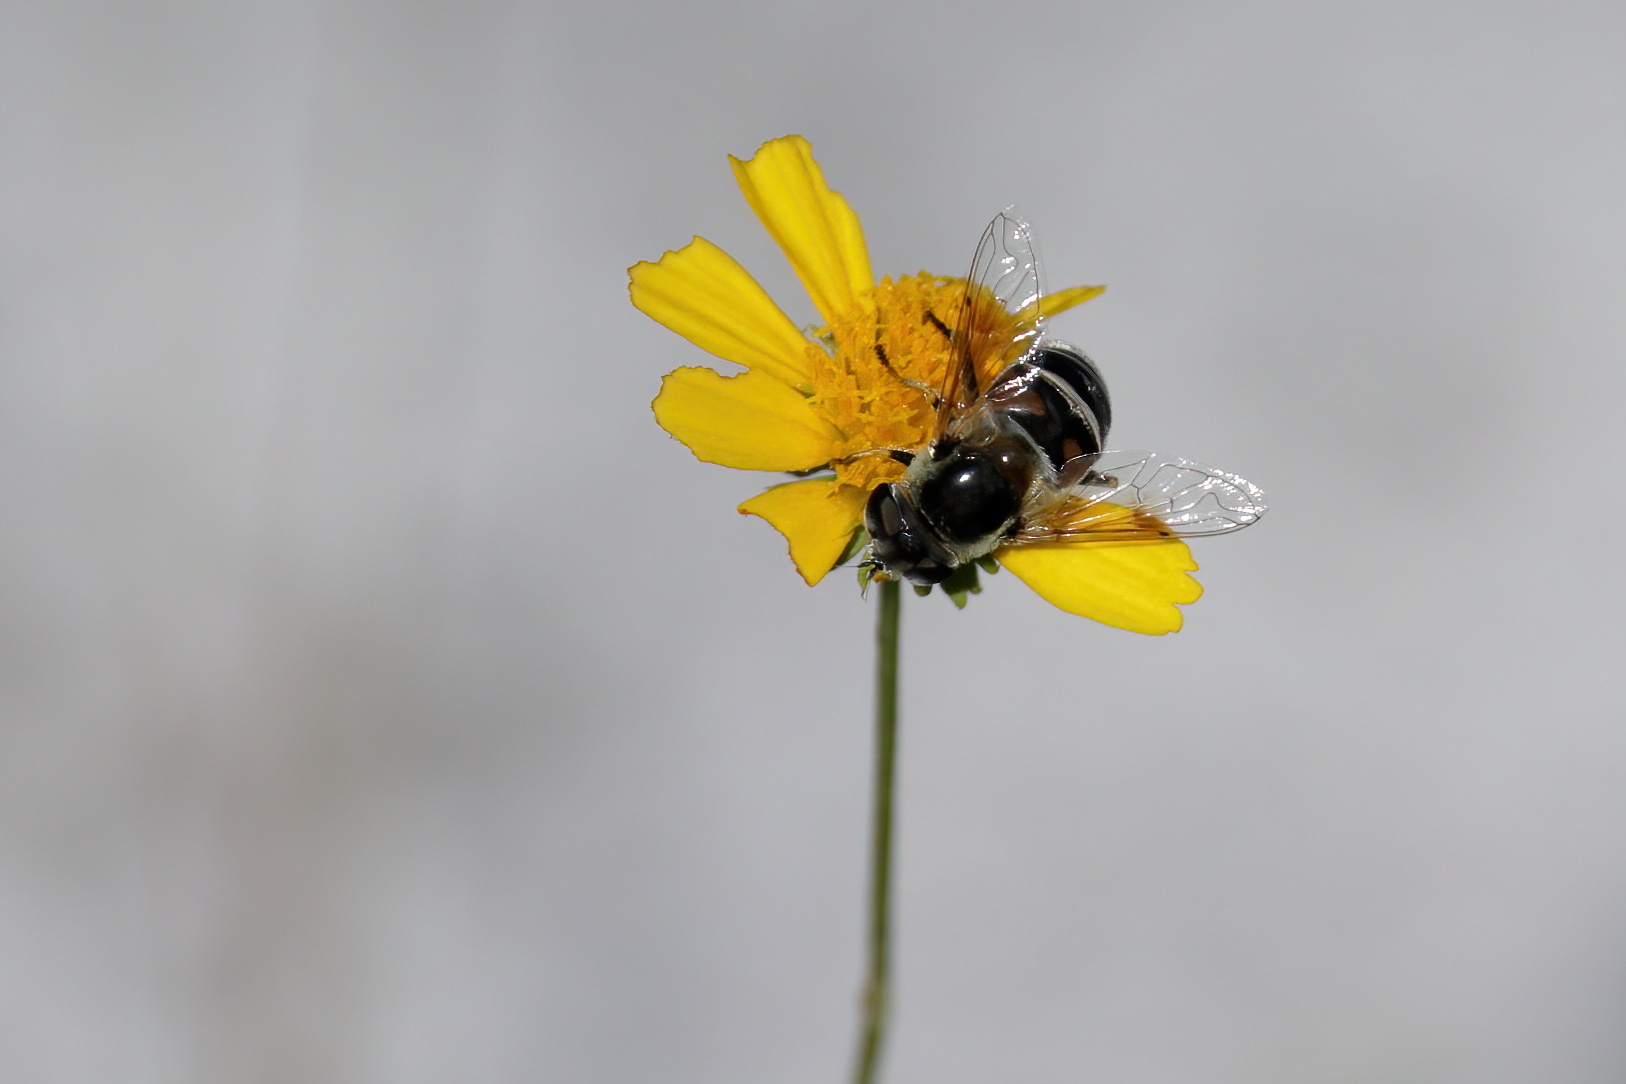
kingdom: Animalia
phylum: Arthropoda
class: Insecta
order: Diptera
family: Syrphidae
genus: Eristalis
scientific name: Eristalis stipator
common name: Yellow-shouldered drone fly
